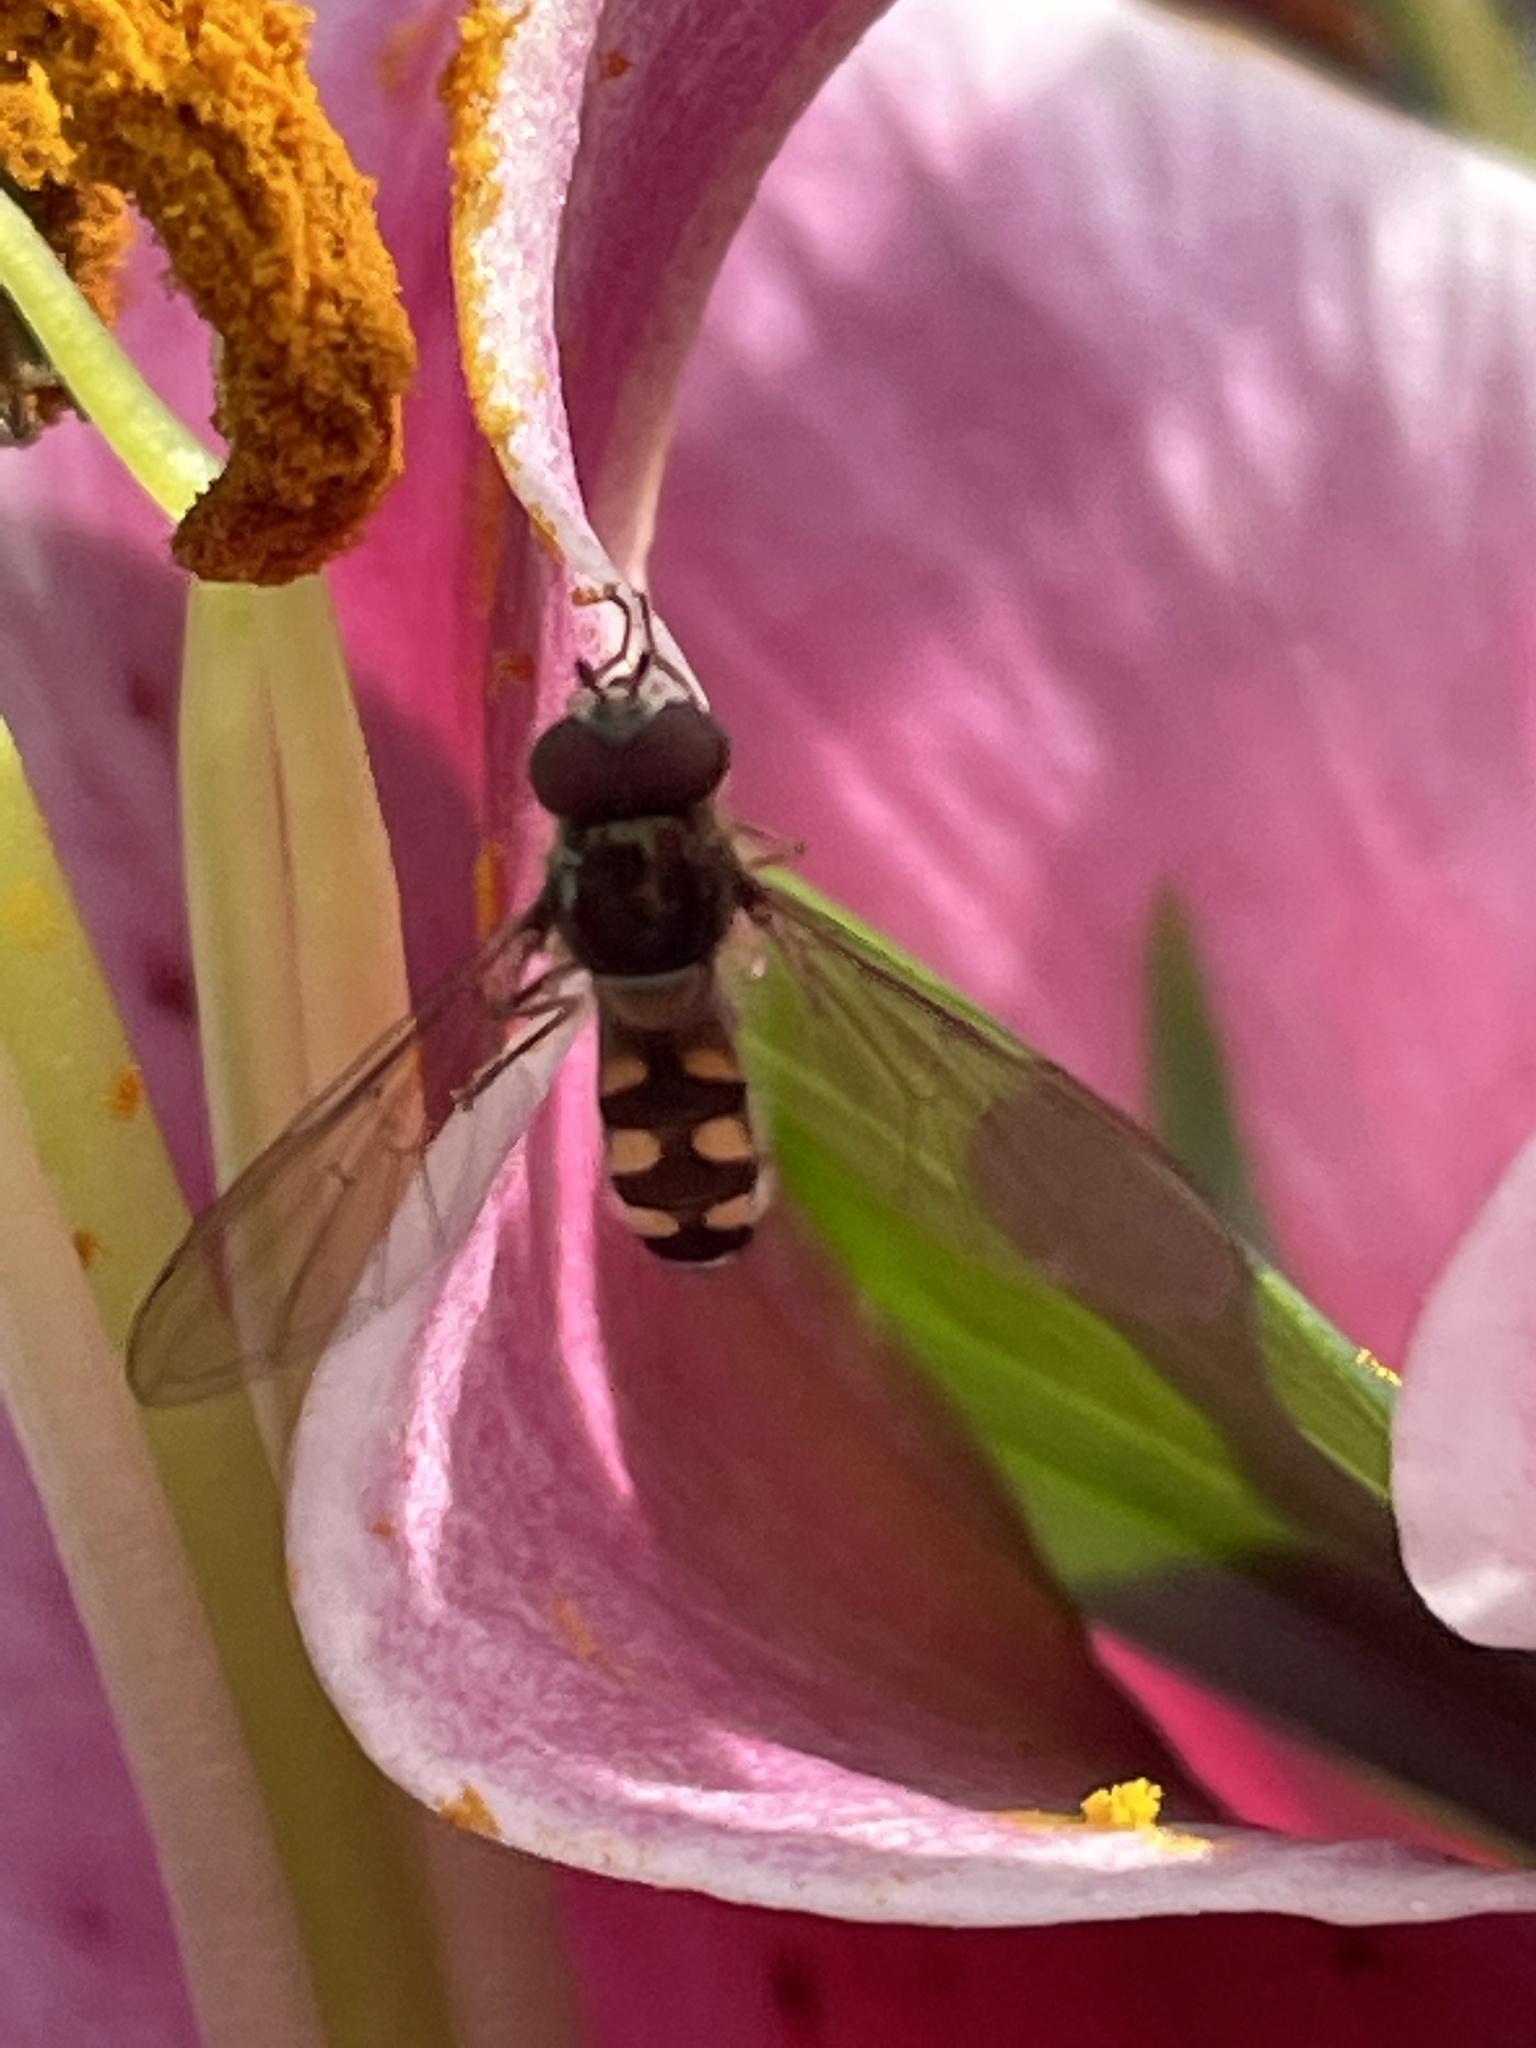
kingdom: Animalia
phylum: Arthropoda
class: Insecta
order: Diptera
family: Syrphidae
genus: Meliscaeva
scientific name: Meliscaeva auricollis
